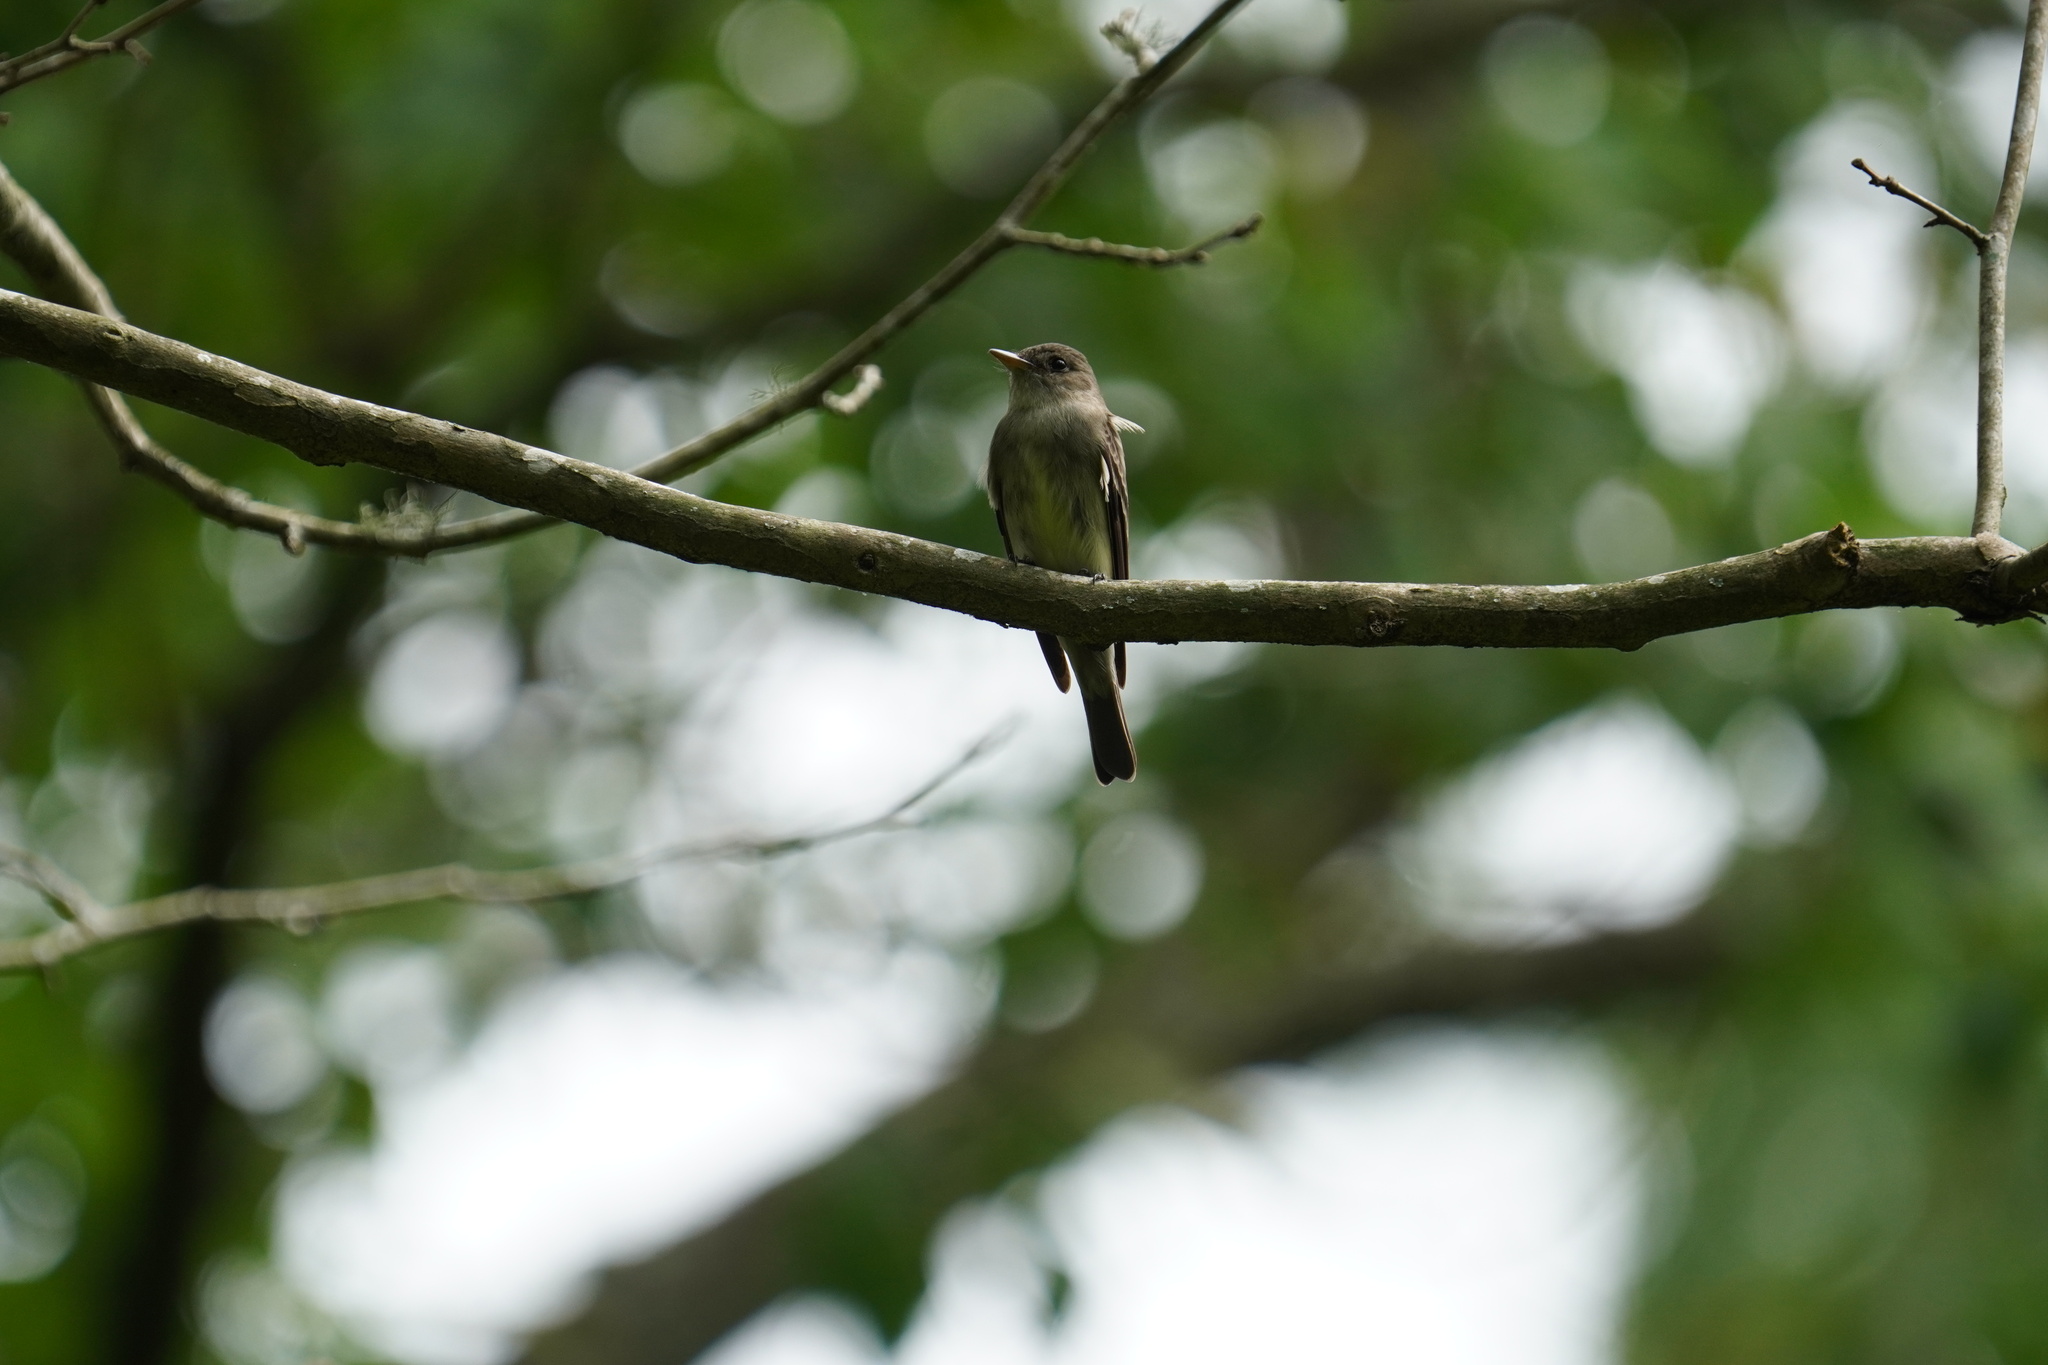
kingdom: Animalia
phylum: Chordata
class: Aves
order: Passeriformes
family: Tyrannidae
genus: Contopus
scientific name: Contopus virens
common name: Eastern wood-pewee
